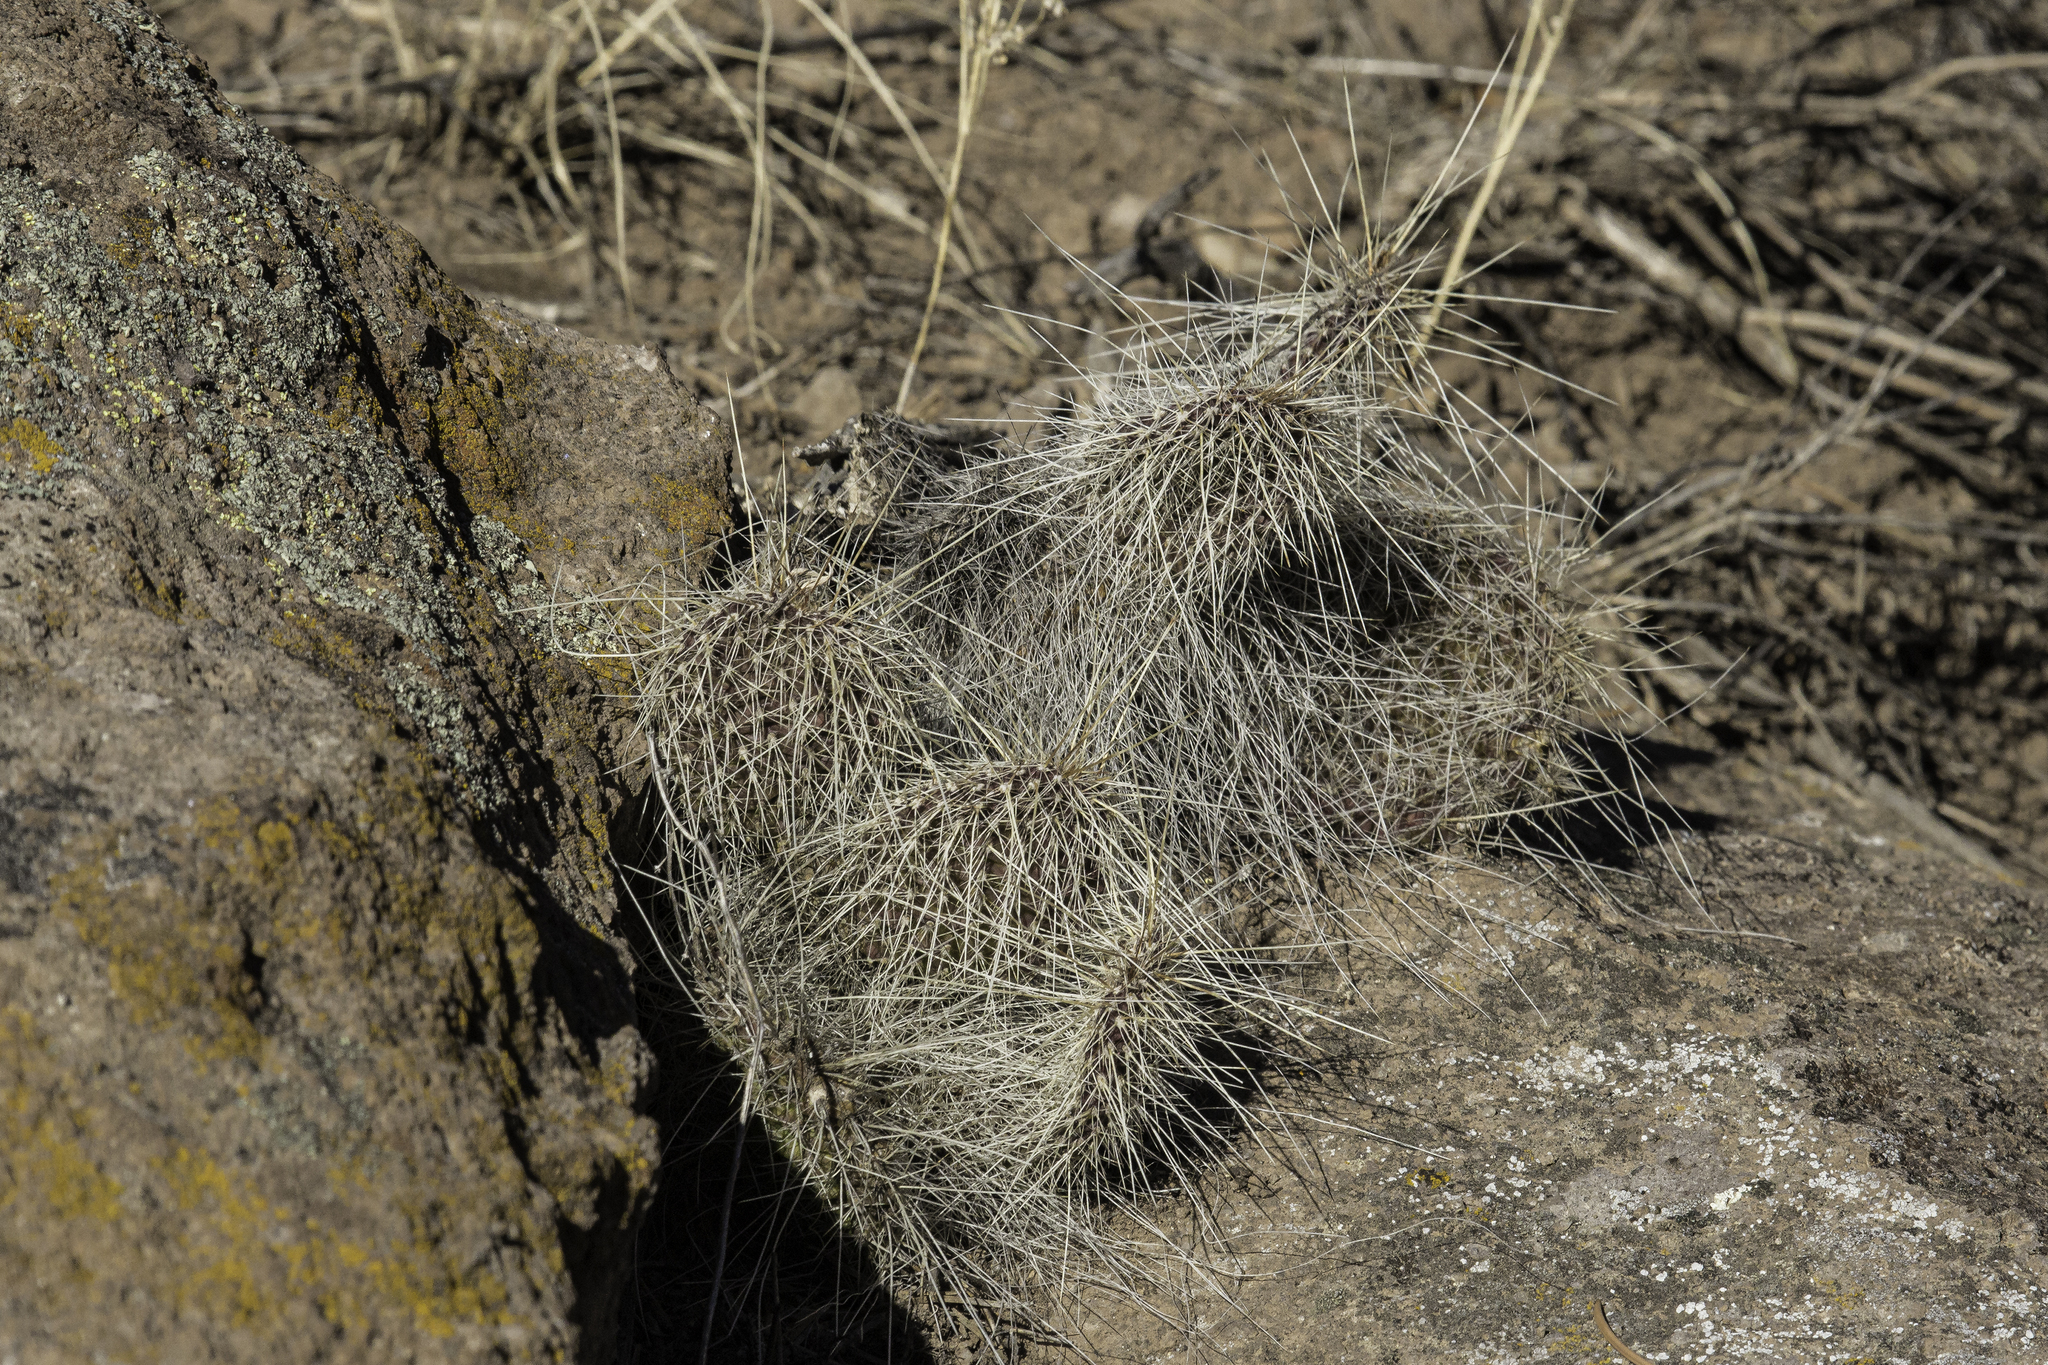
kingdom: Plantae
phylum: Tracheophyta
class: Magnoliopsida
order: Caryophyllales
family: Cactaceae
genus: Opuntia
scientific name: Opuntia polyacantha
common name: Plains prickly-pear
